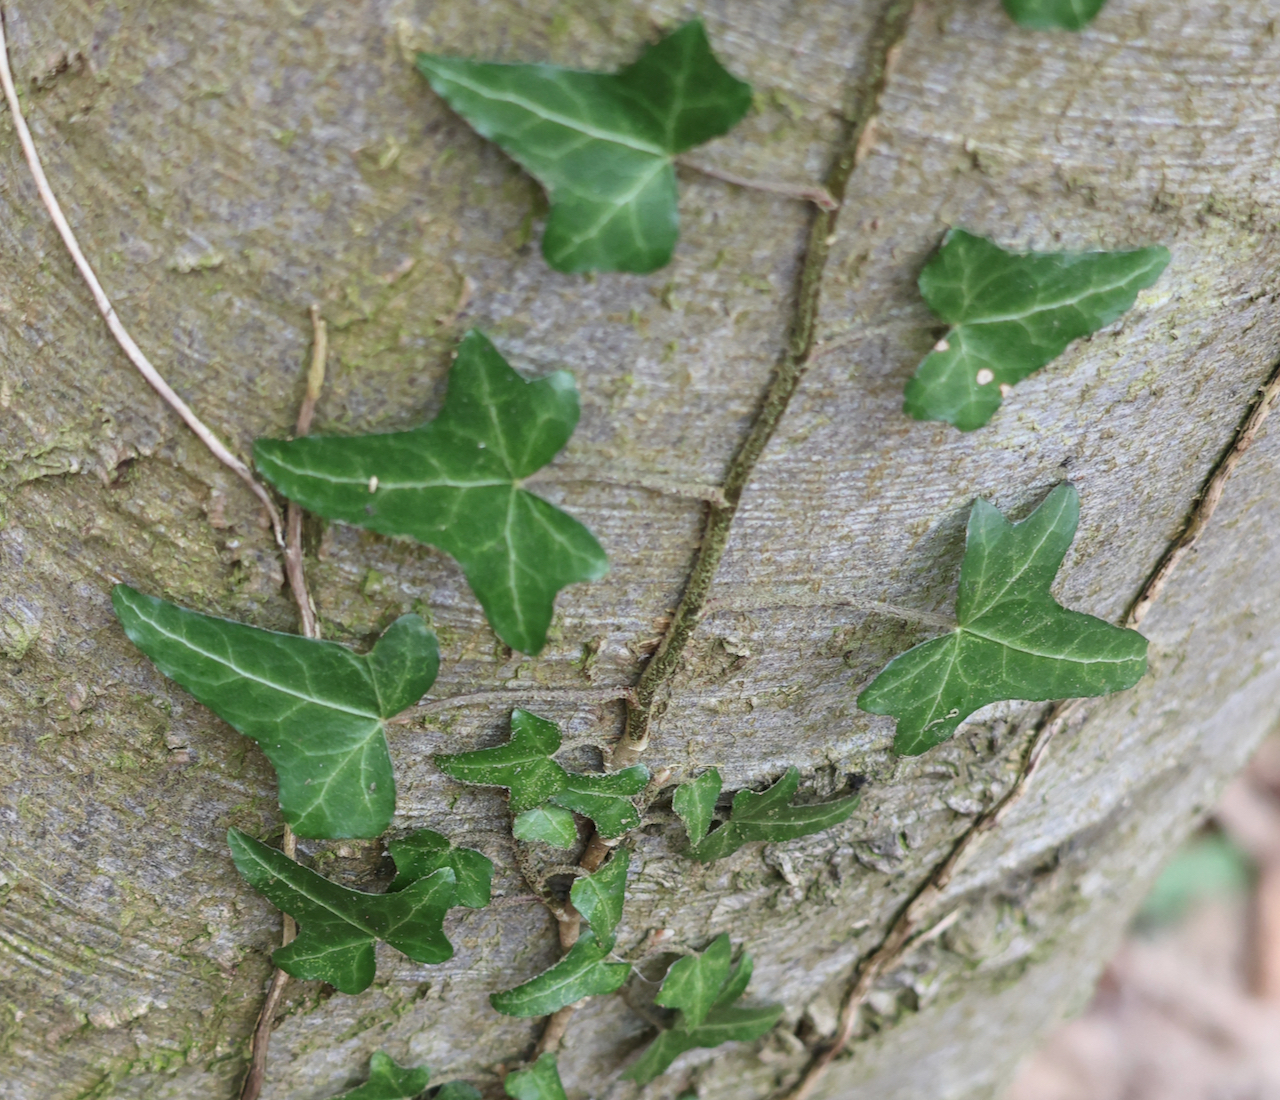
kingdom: Plantae
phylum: Tracheophyta
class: Magnoliopsida
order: Apiales
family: Araliaceae
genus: Hedera
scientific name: Hedera helix
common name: Ivy
